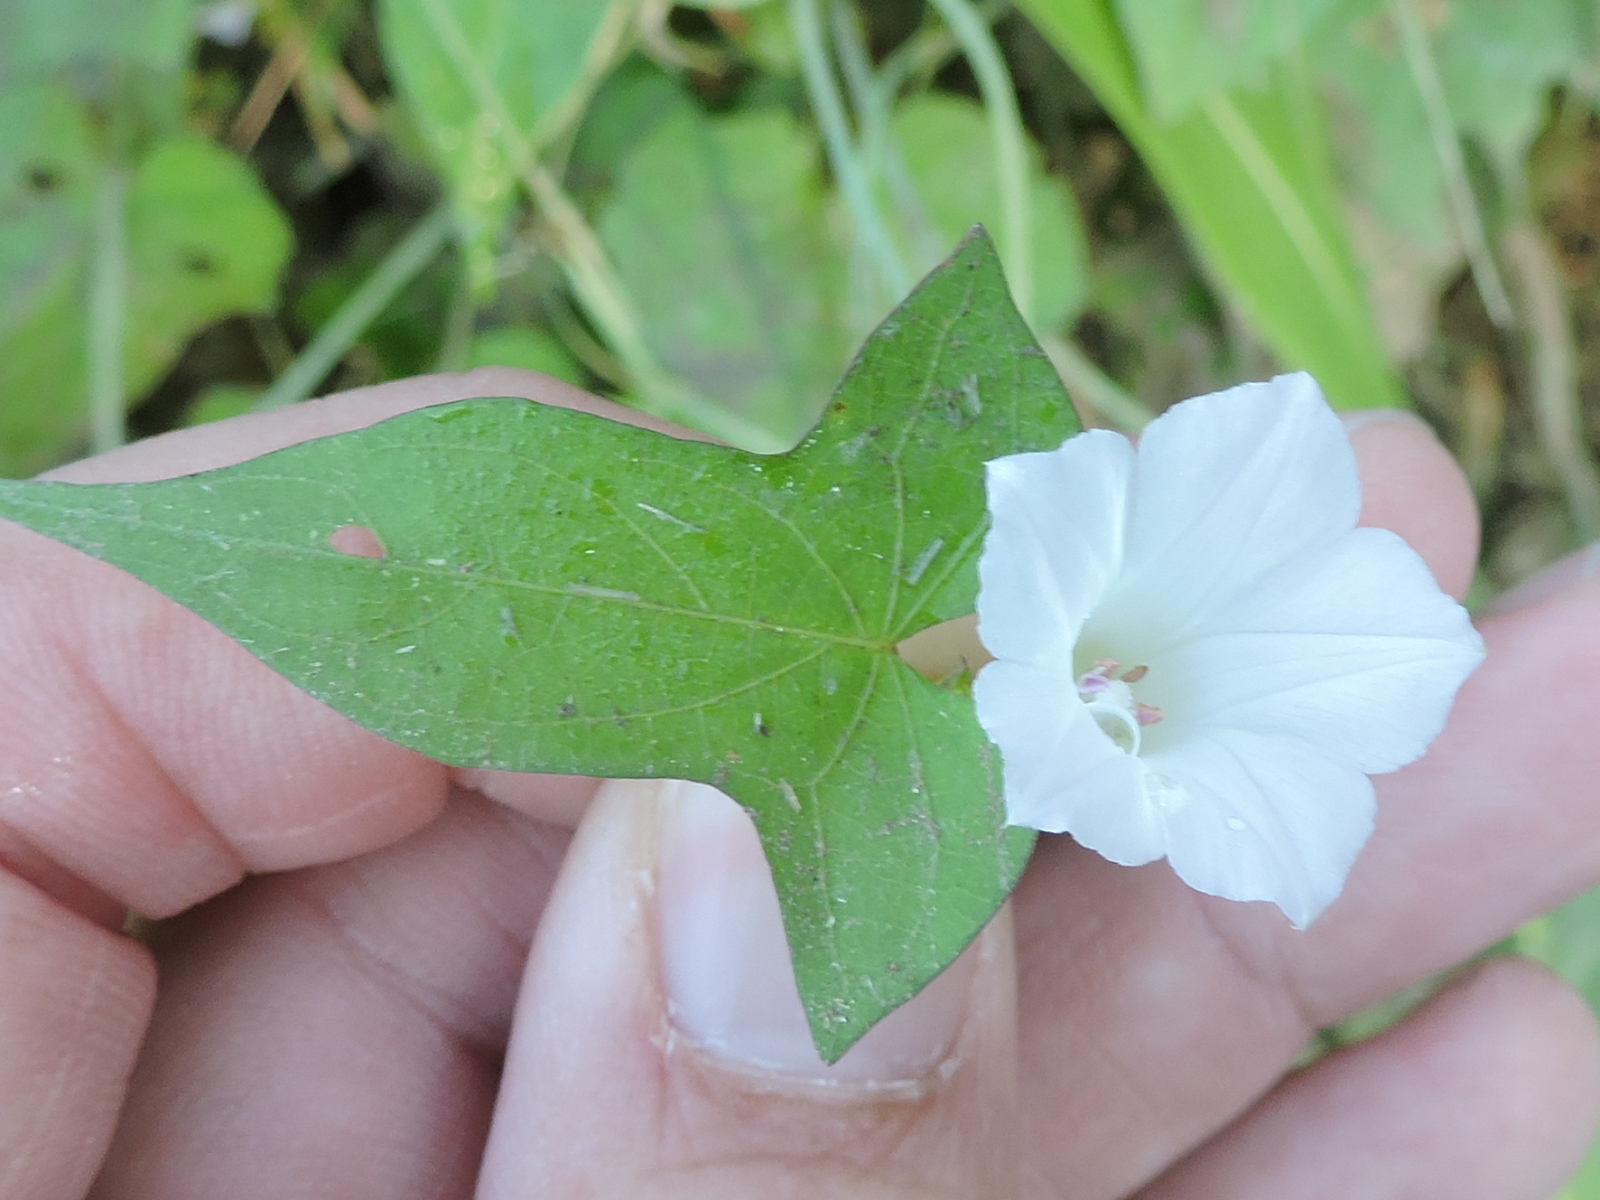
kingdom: Plantae
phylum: Tracheophyta
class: Magnoliopsida
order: Solanales
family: Convolvulaceae
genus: Ipomoea
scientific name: Ipomoea lacunosa
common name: White morning-glory
